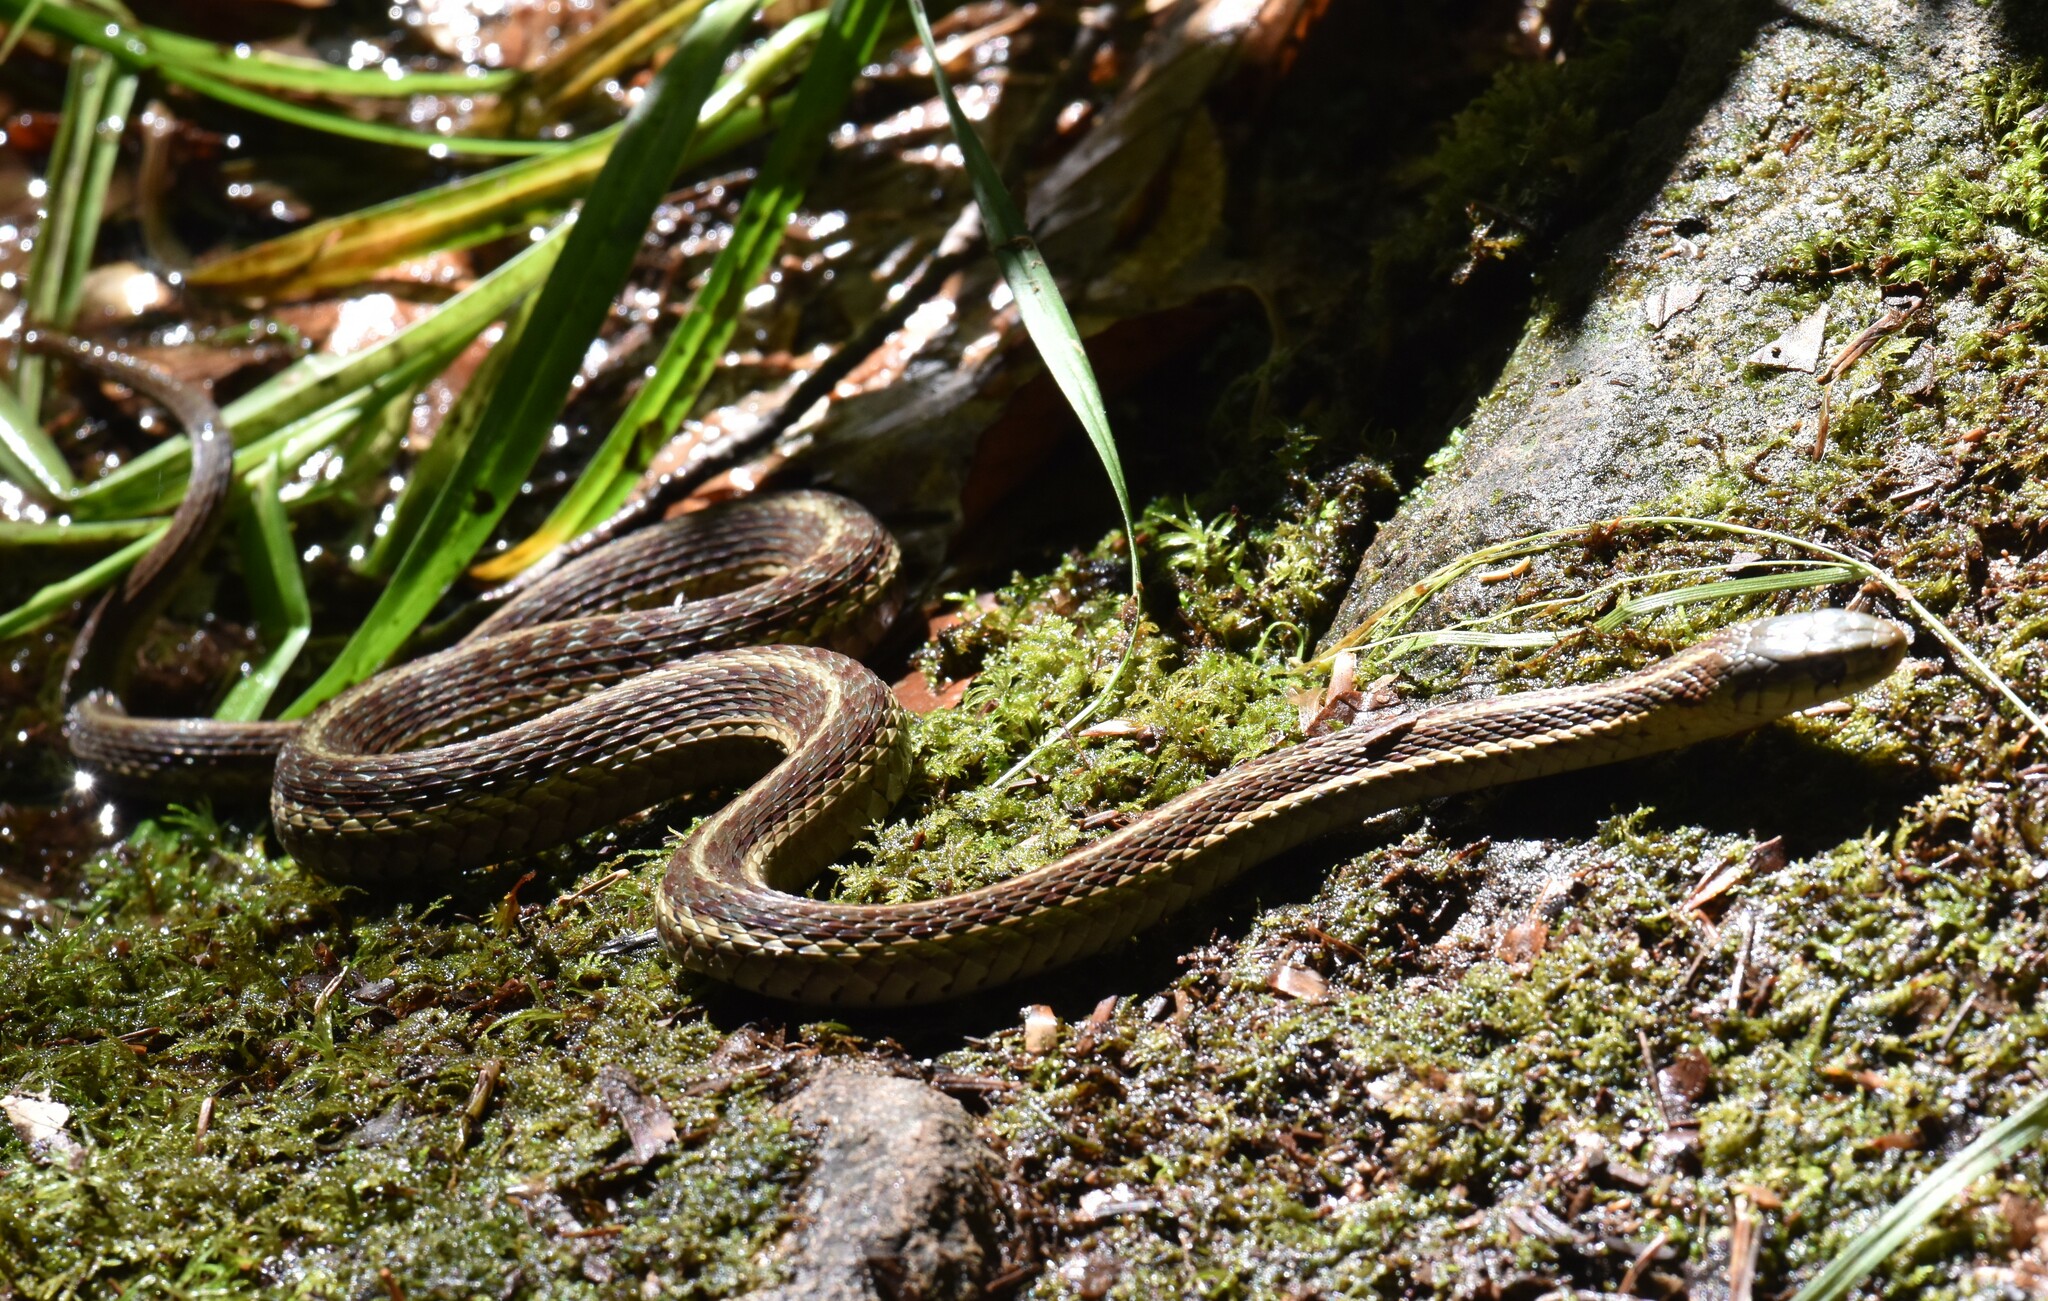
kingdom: Animalia
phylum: Chordata
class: Squamata
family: Colubridae
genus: Thamnophis
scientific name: Thamnophis sirtalis
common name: Common garter snake
